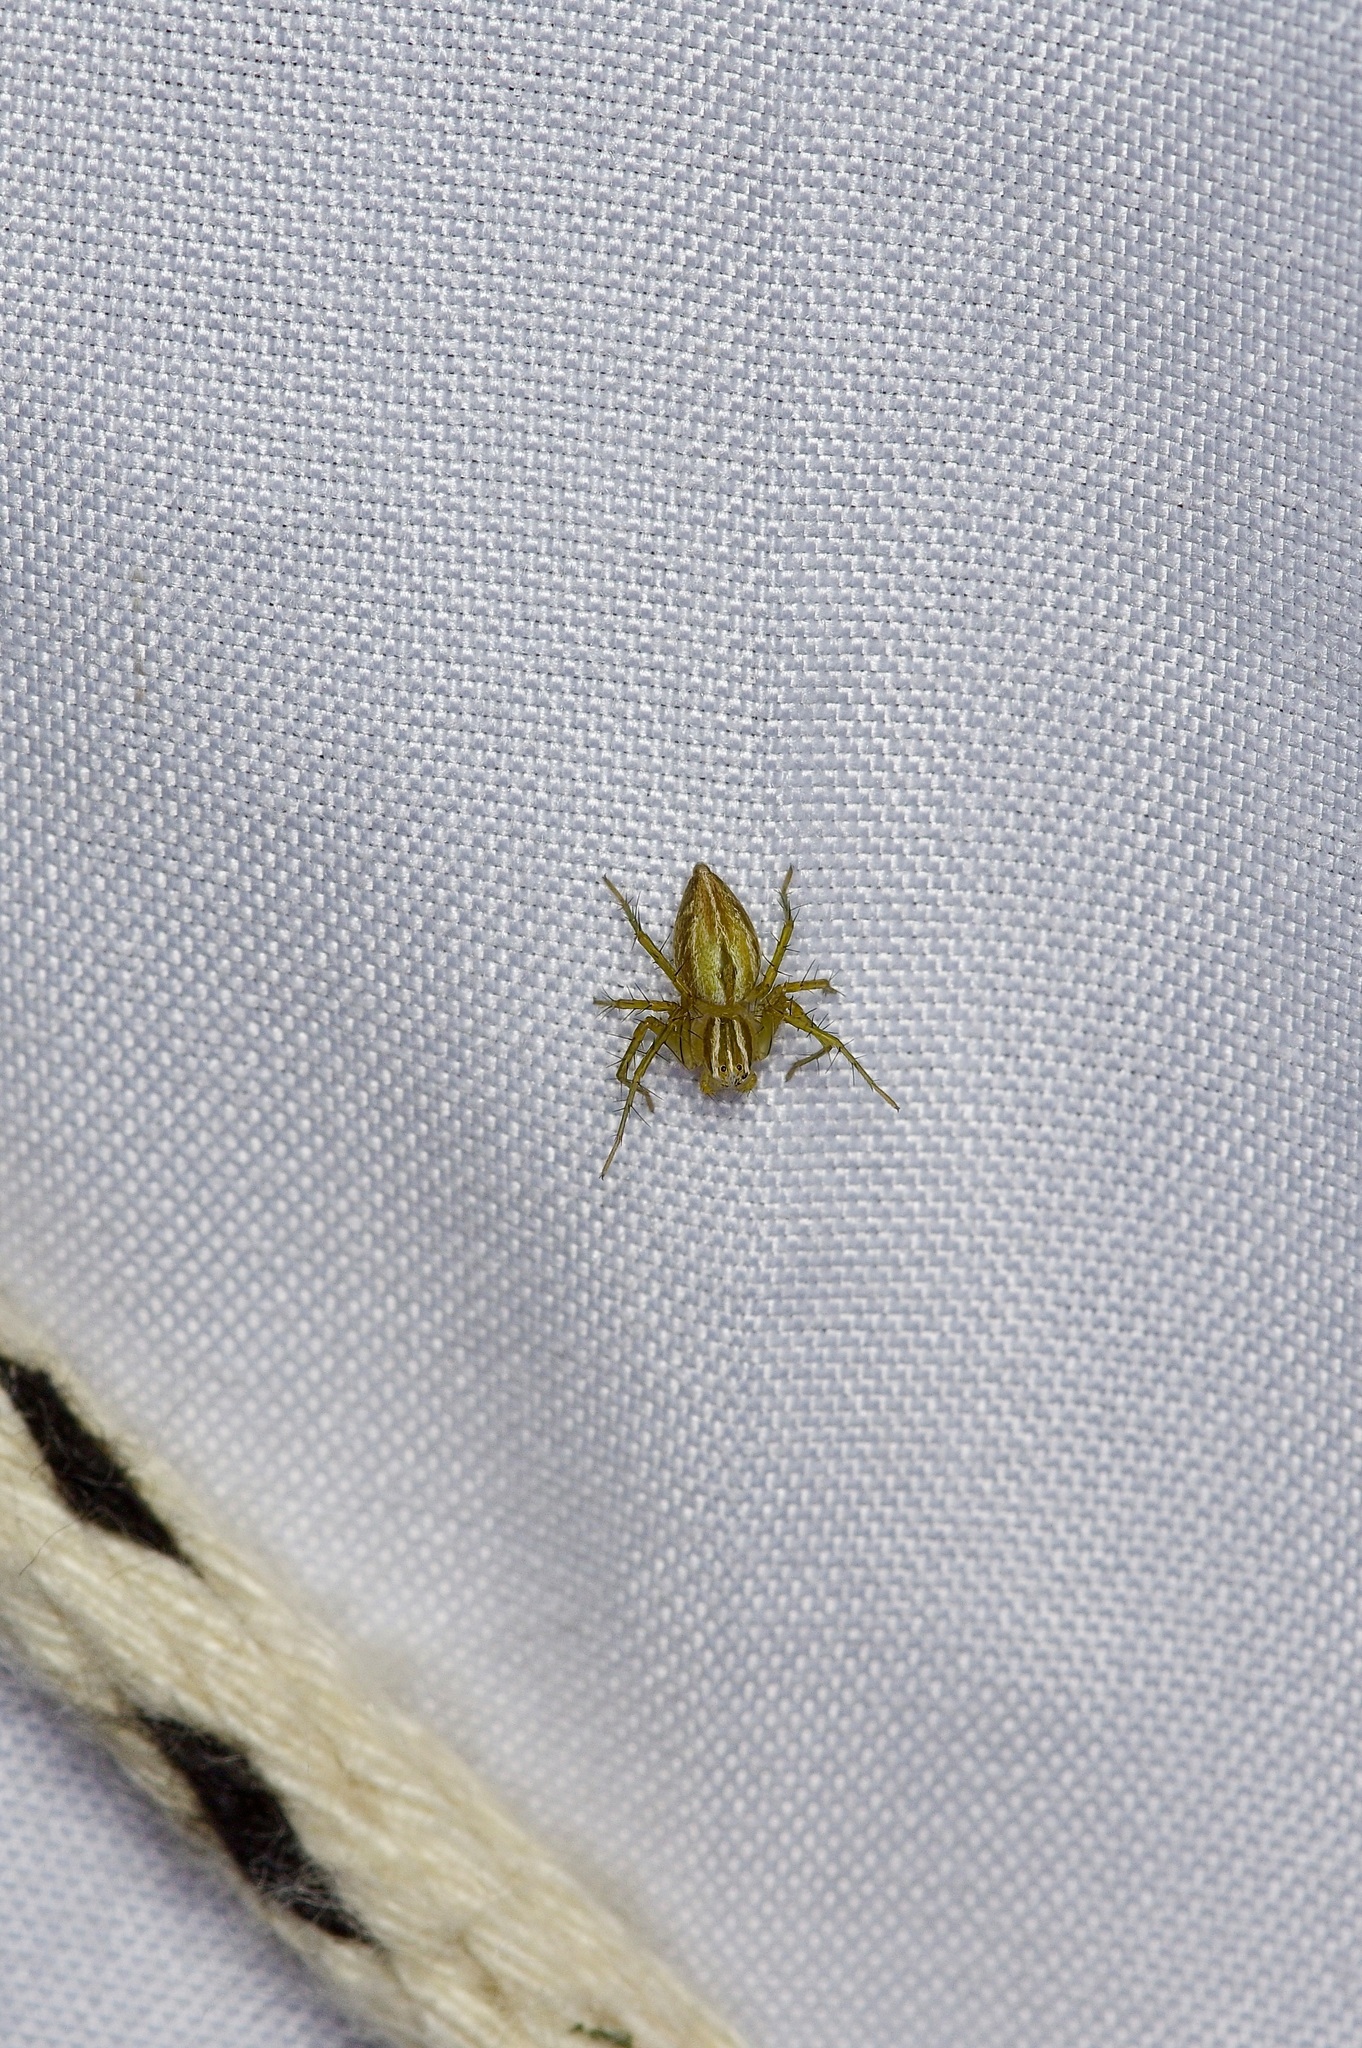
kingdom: Animalia
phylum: Arthropoda
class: Arachnida
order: Araneae
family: Oxyopidae
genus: Oxyopes
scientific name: Oxyopes salticus
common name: Lynx spiders
